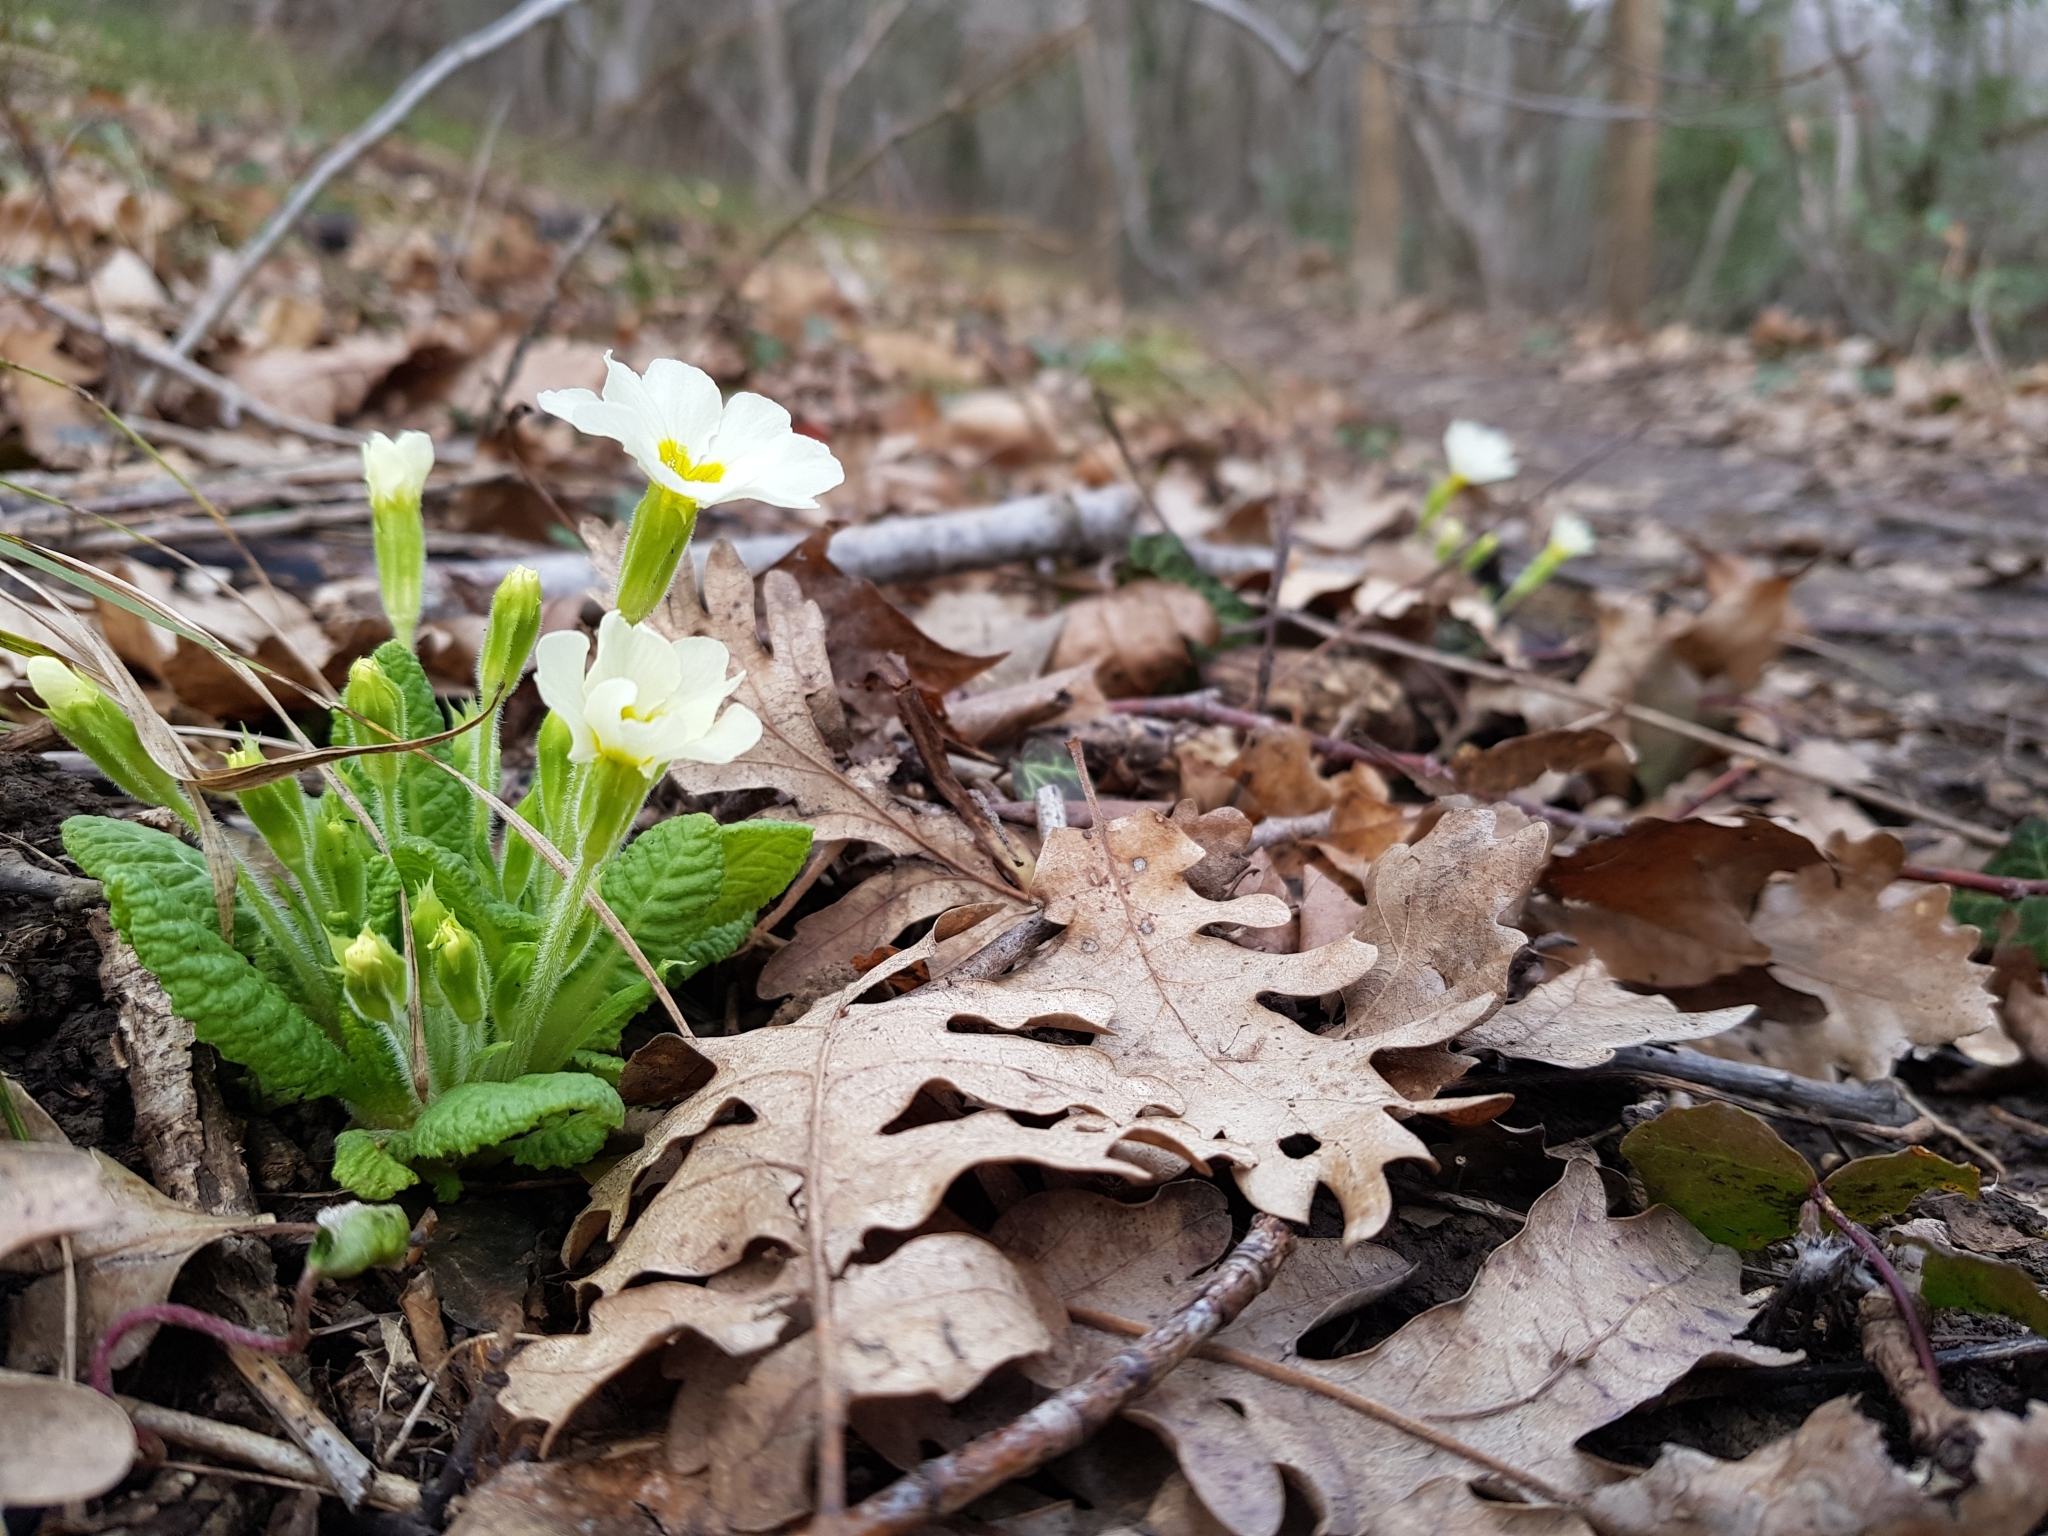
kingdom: Plantae
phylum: Tracheophyta
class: Magnoliopsida
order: Ericales
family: Primulaceae
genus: Primula
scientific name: Primula vulgaris
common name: Primrose
